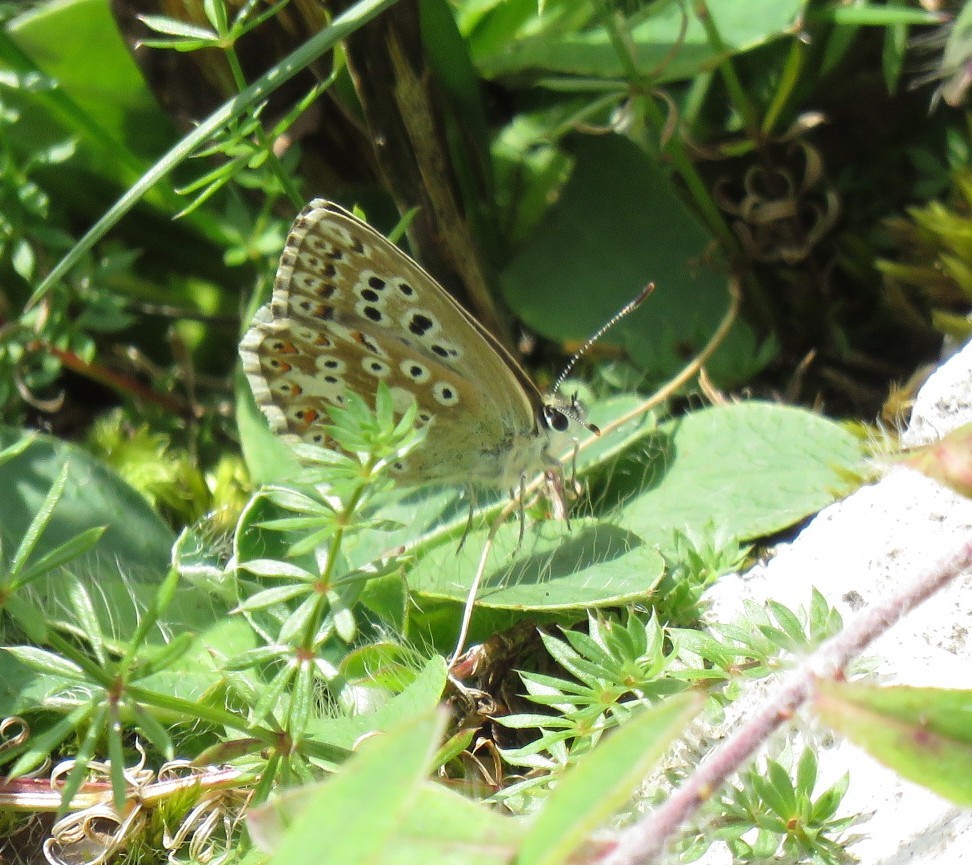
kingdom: Animalia
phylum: Arthropoda
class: Insecta
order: Lepidoptera
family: Lycaenidae
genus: Lysandra
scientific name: Lysandra coridon
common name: Chalkhill blue
